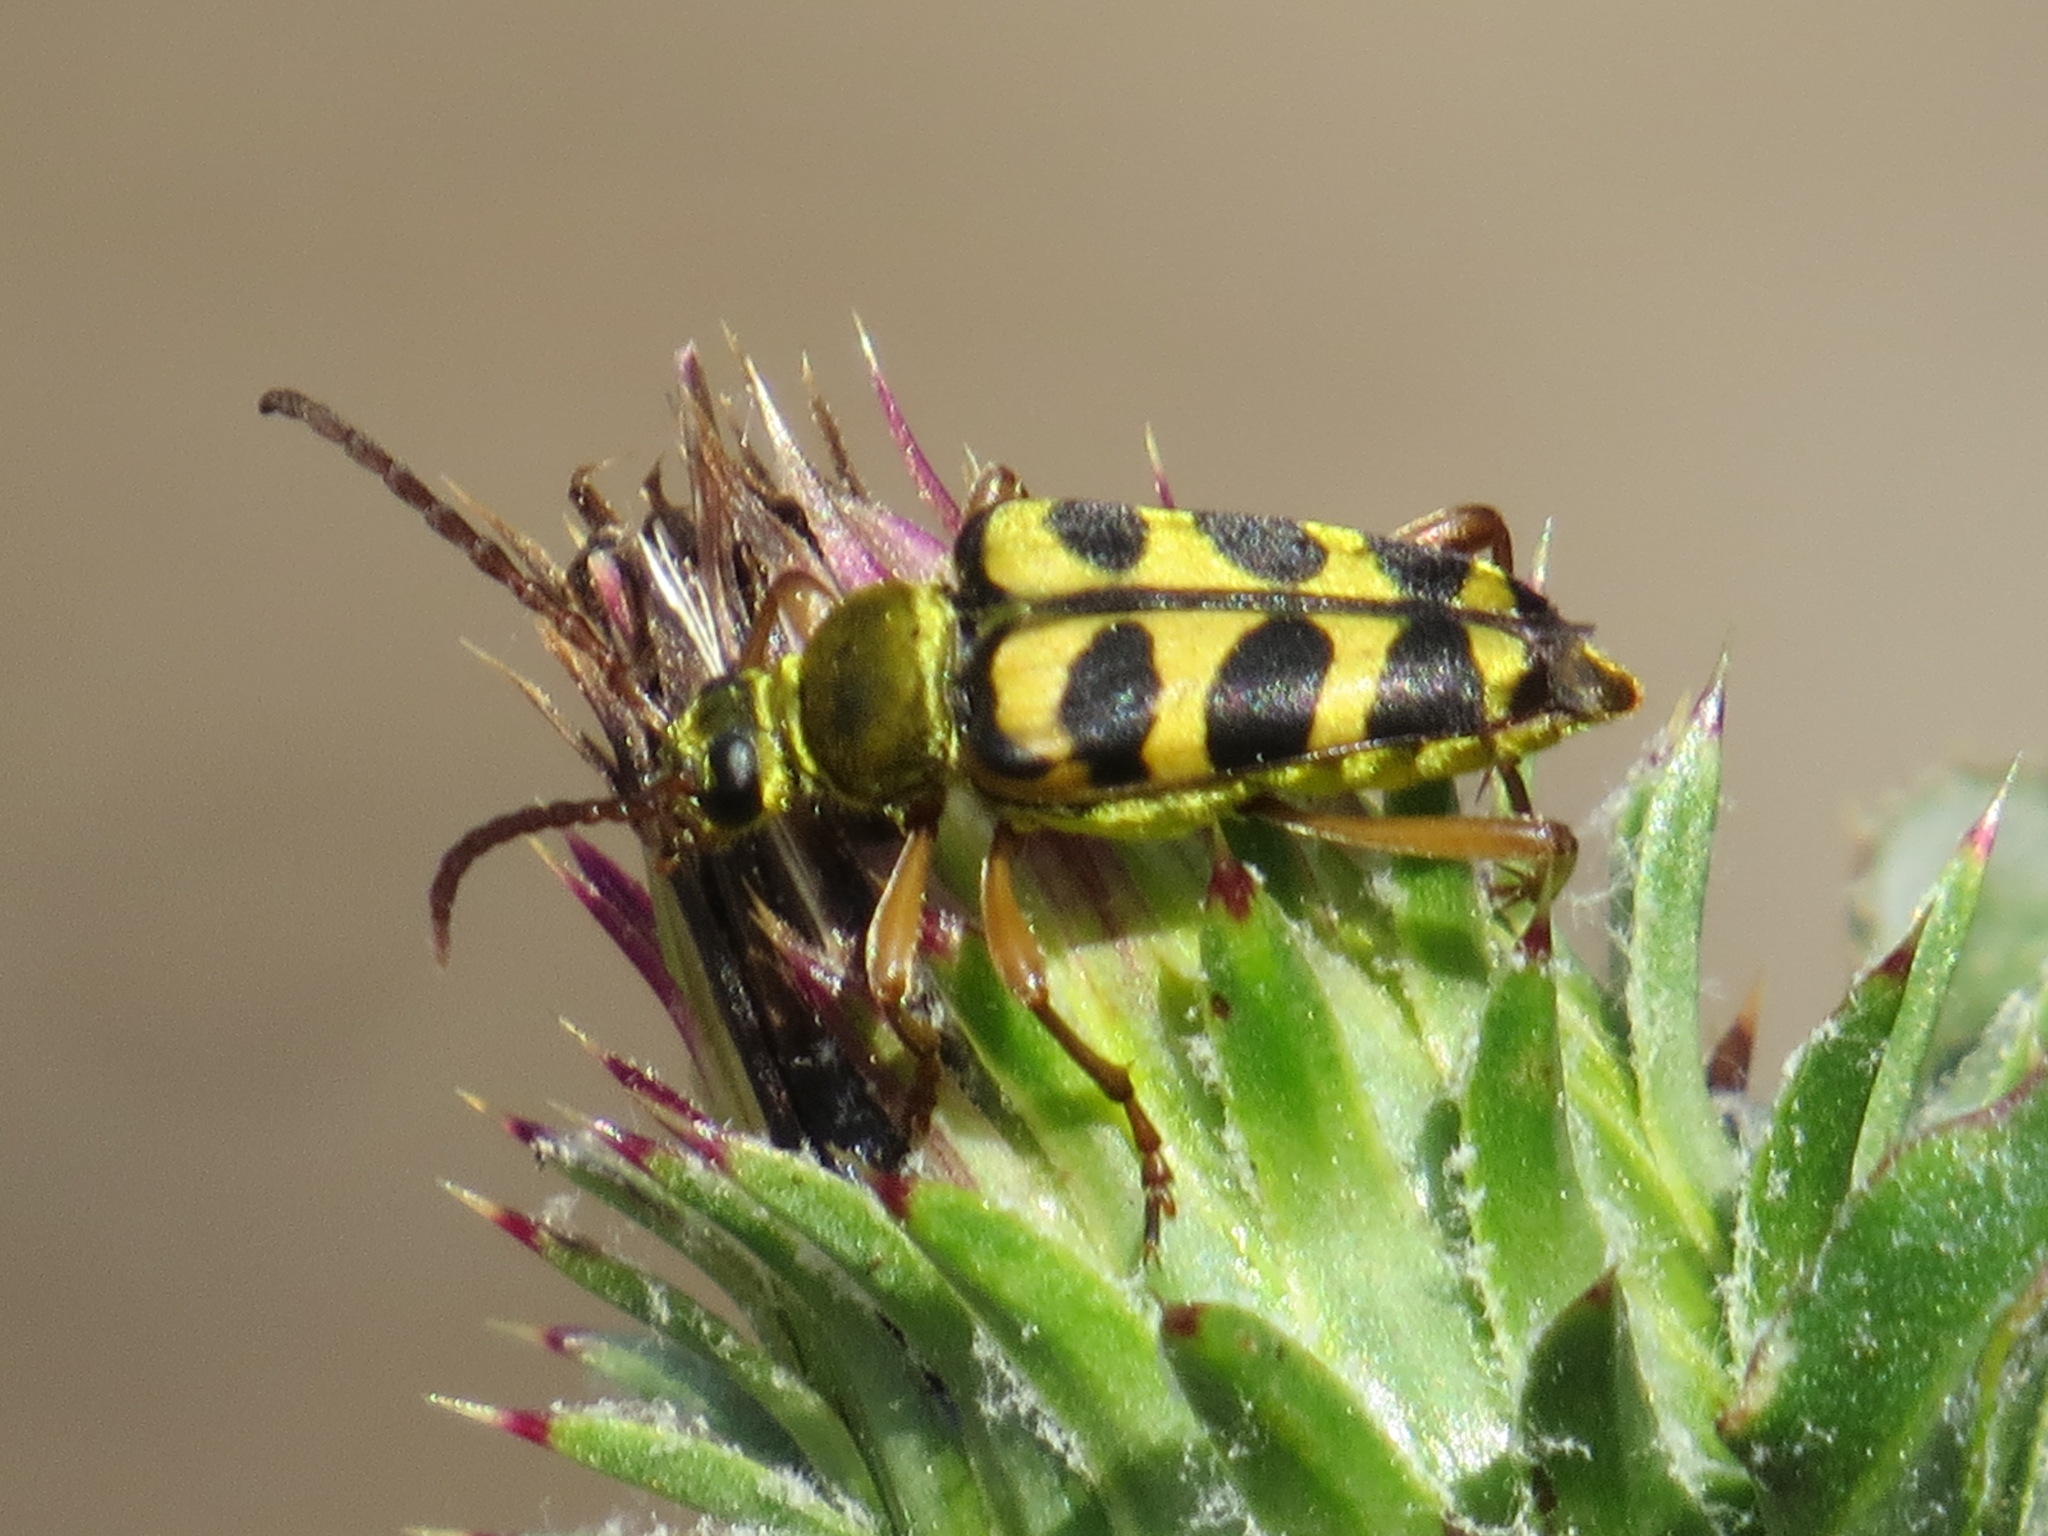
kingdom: Animalia
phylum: Arthropoda
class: Insecta
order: Coleoptera
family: Cerambycidae
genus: Strophiona
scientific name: Strophiona tigrina
